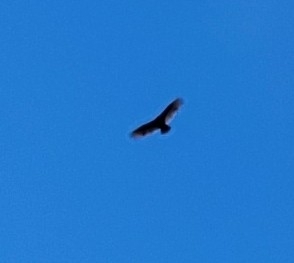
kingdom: Animalia
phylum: Chordata
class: Aves
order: Accipitriformes
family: Cathartidae
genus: Cathartes
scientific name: Cathartes aura
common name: Turkey vulture
